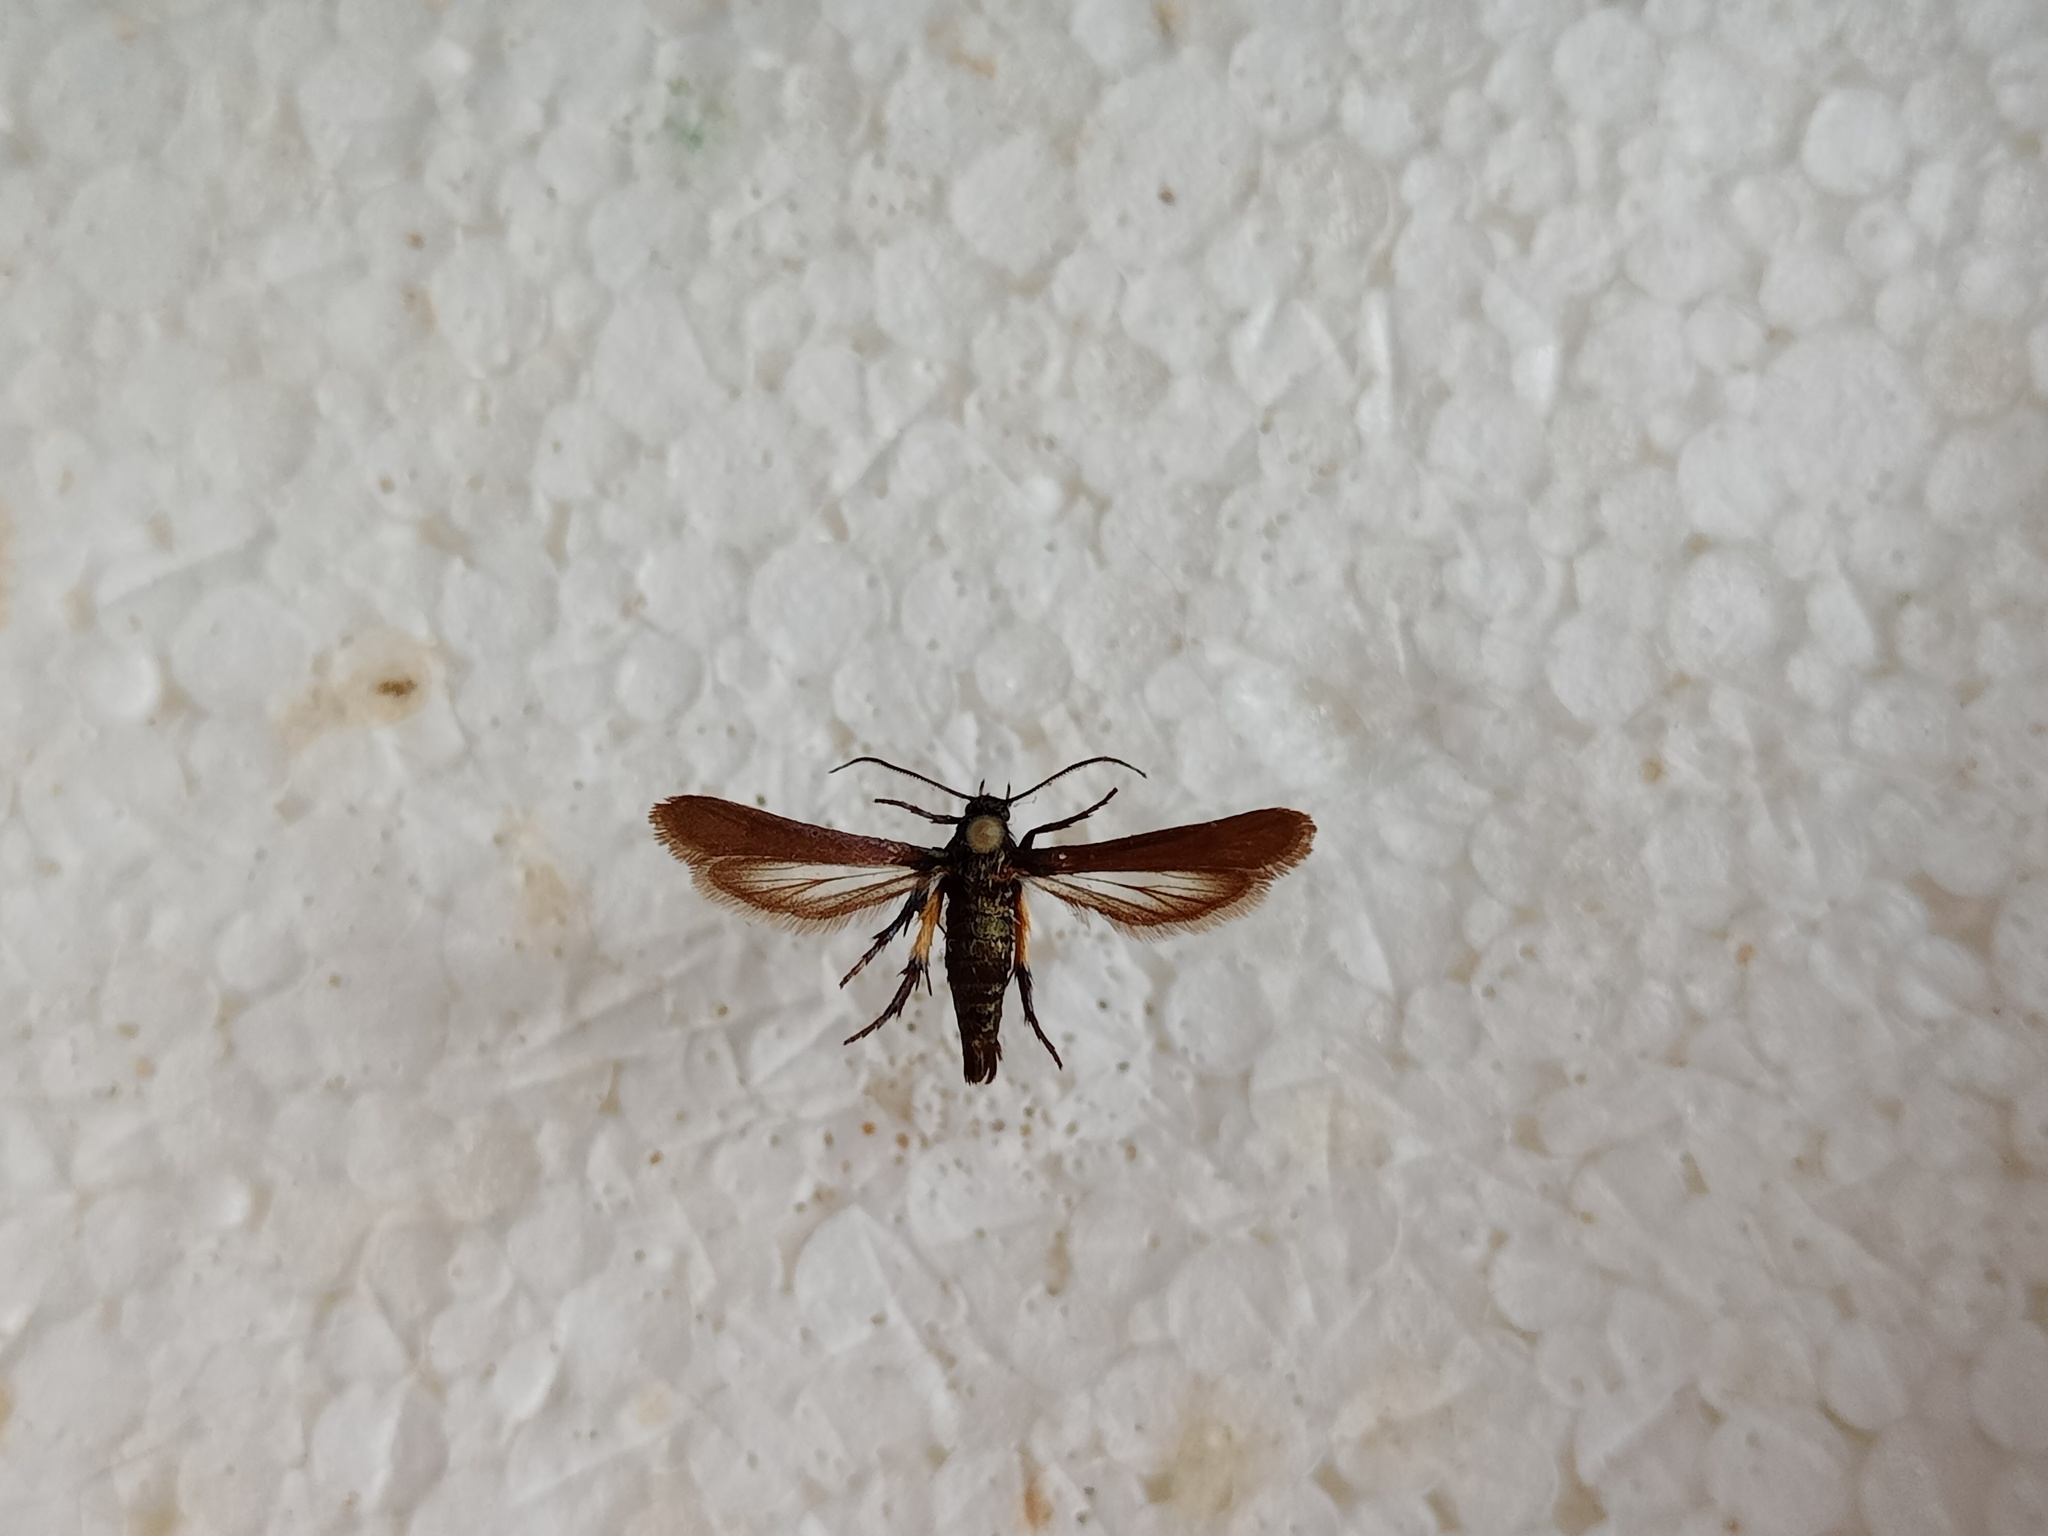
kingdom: Animalia
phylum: Arthropoda
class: Insecta
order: Lepidoptera
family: Sesiidae
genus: Negotinthia
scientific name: Negotinthia myrmosaeformis
